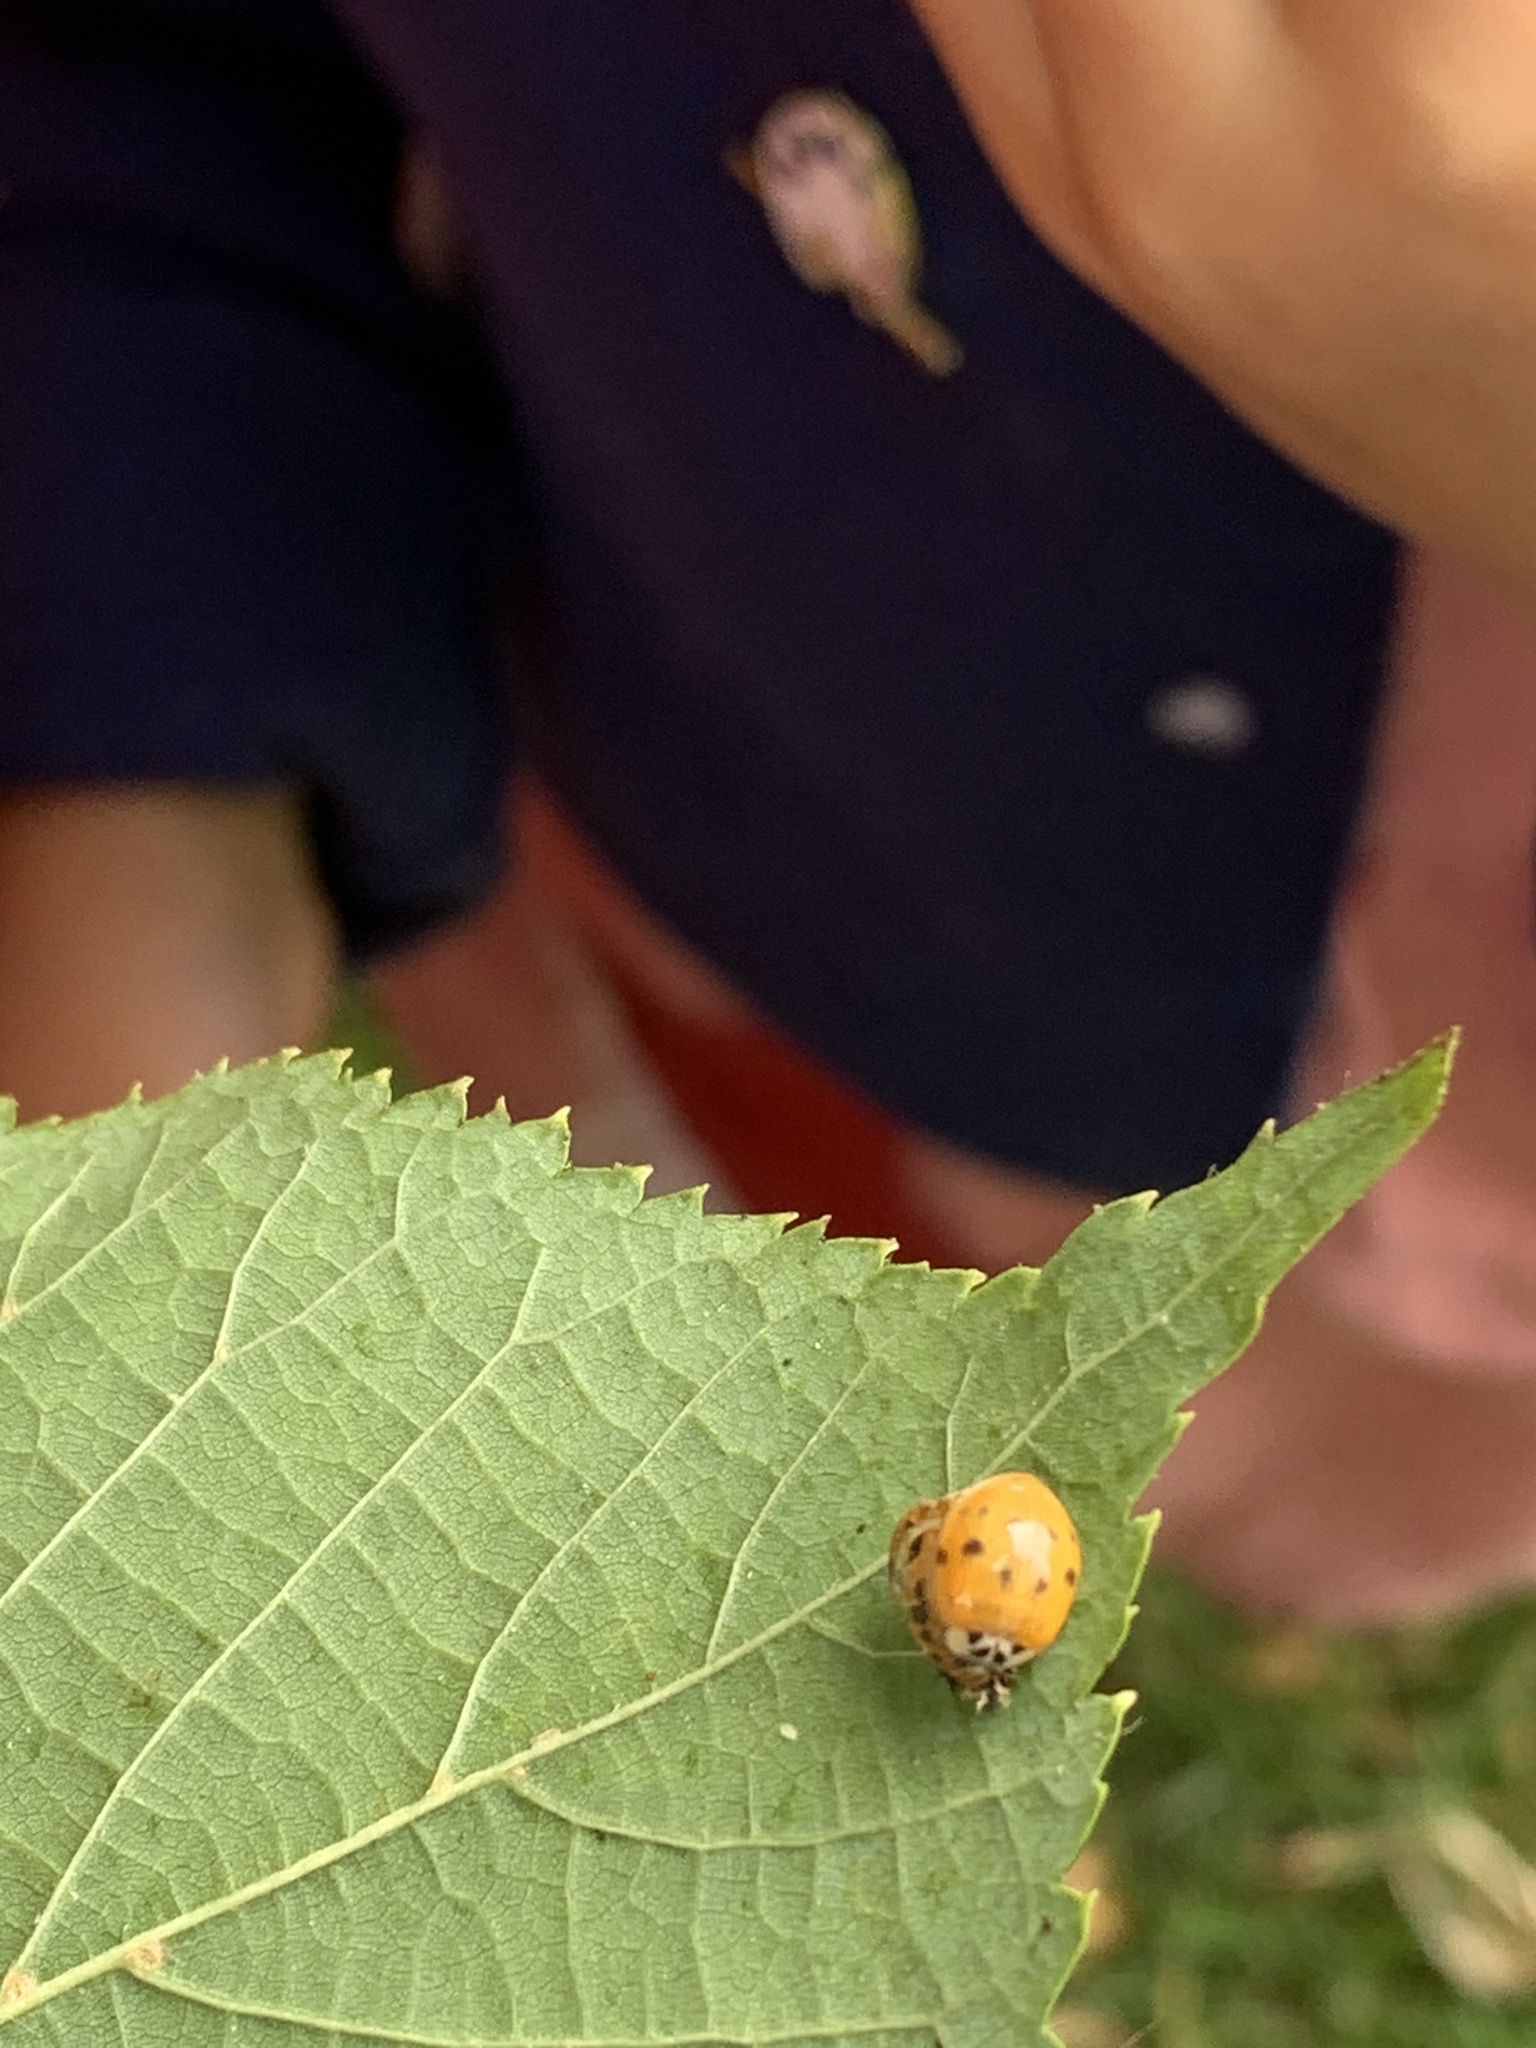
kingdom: Animalia
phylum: Arthropoda
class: Insecta
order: Coleoptera
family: Coccinellidae
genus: Harmonia
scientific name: Harmonia axyridis
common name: Harlequin ladybird
